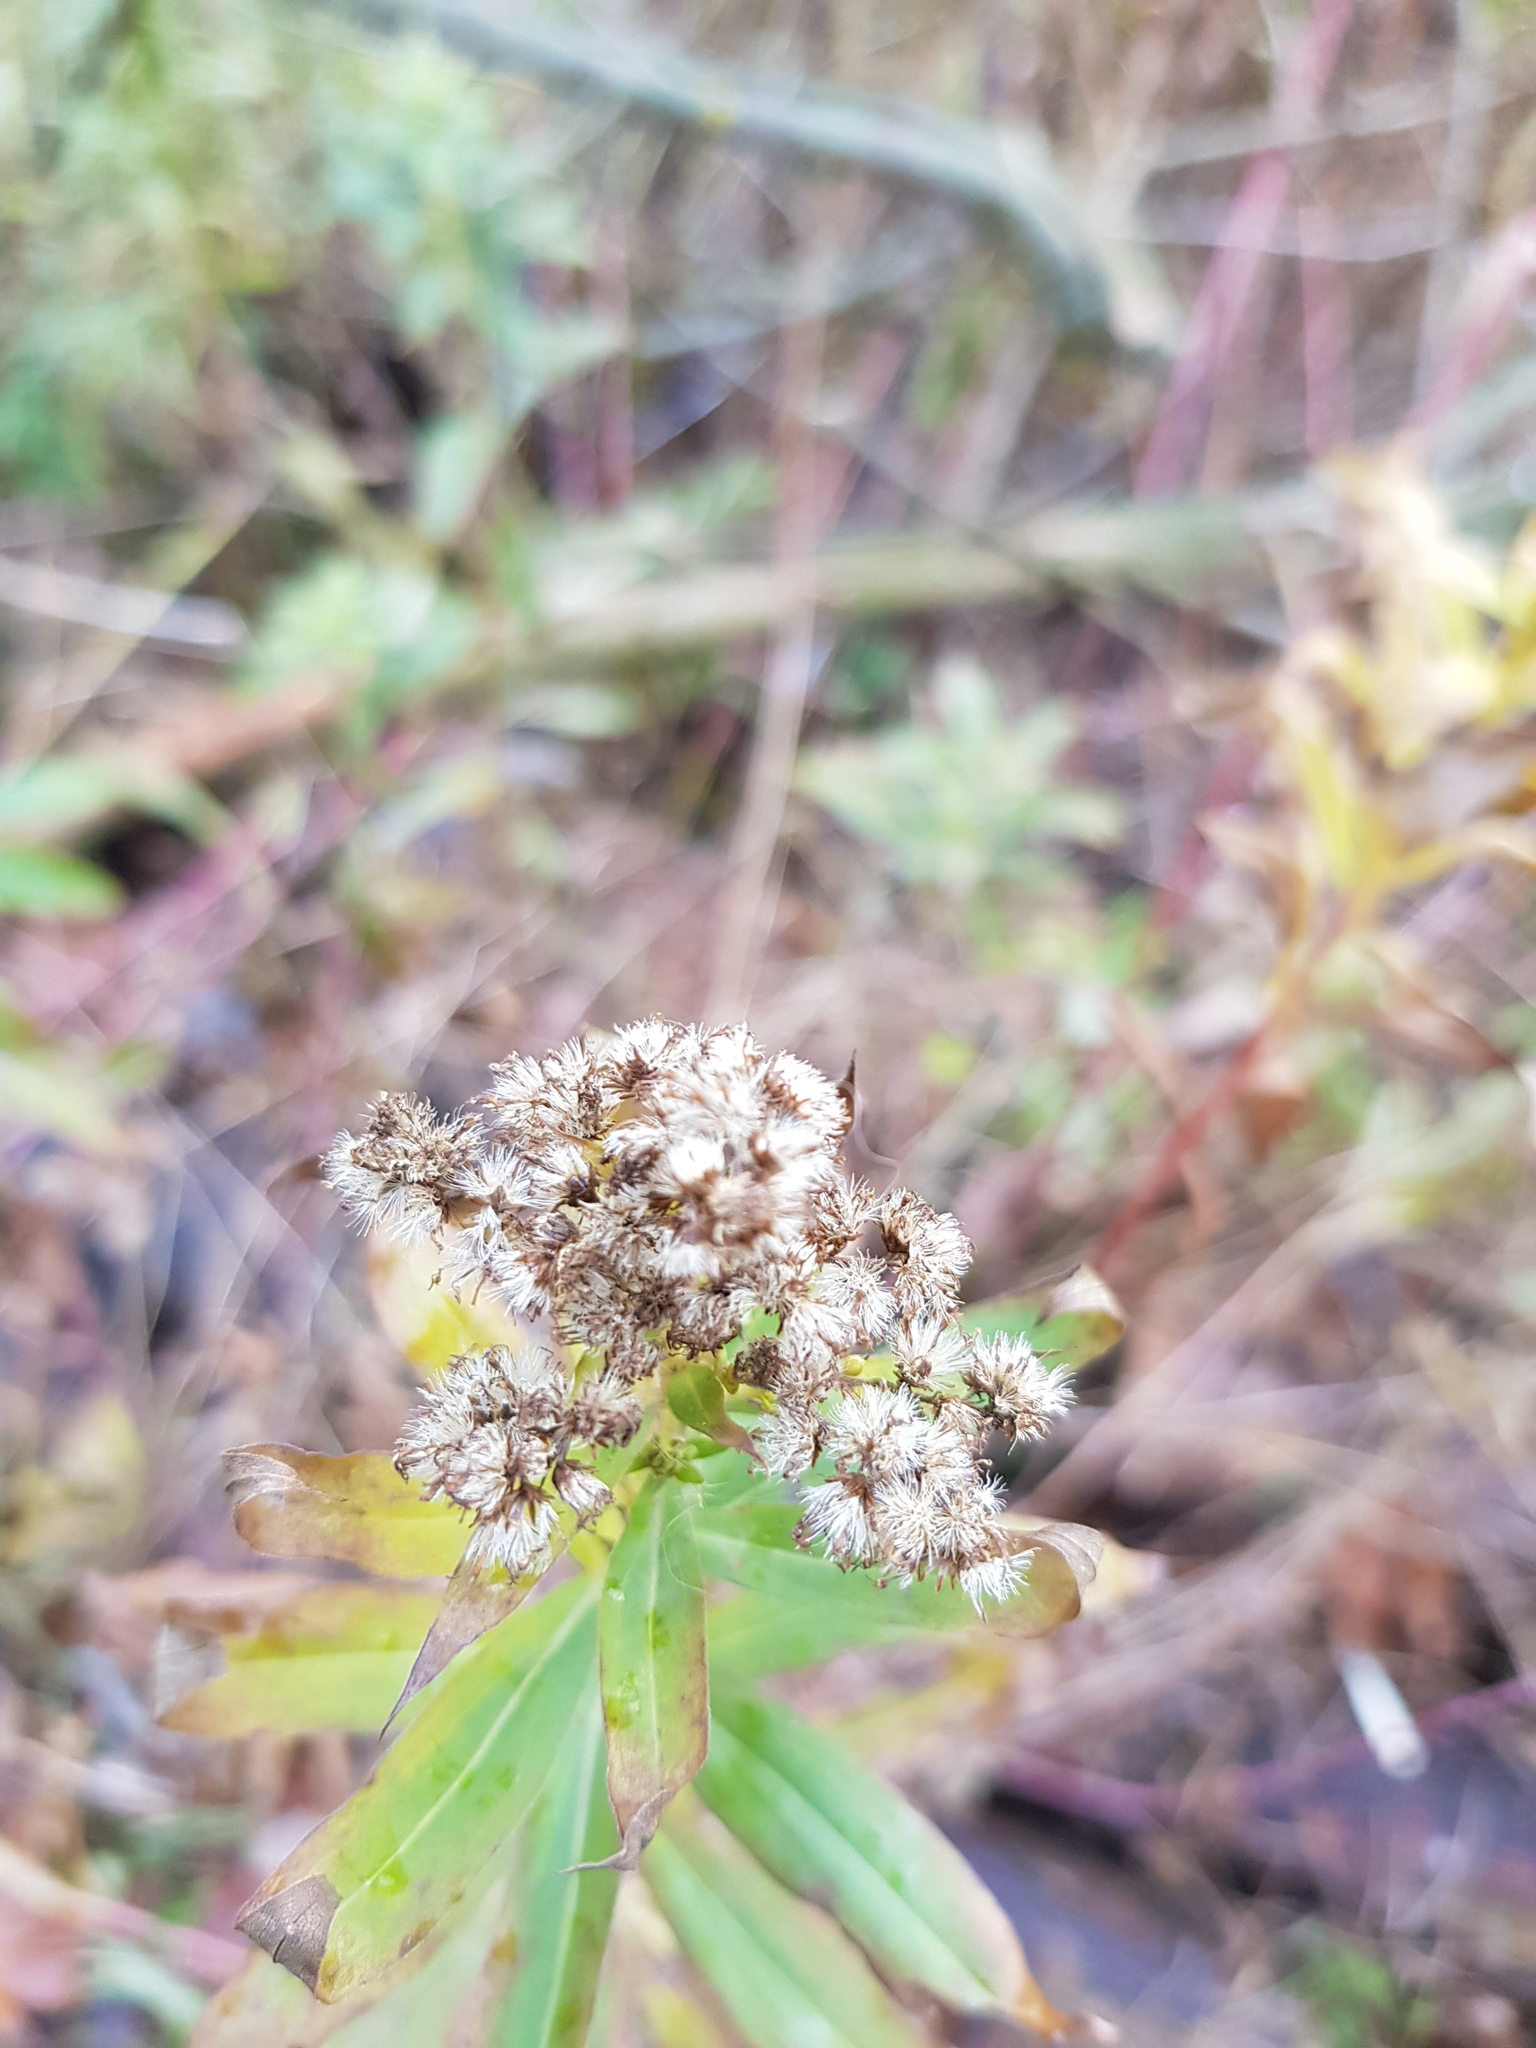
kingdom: Plantae
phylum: Tracheophyta
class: Magnoliopsida
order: Asterales
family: Asteraceae
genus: Solidago
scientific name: Solidago gigantea
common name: Giant goldenrod
